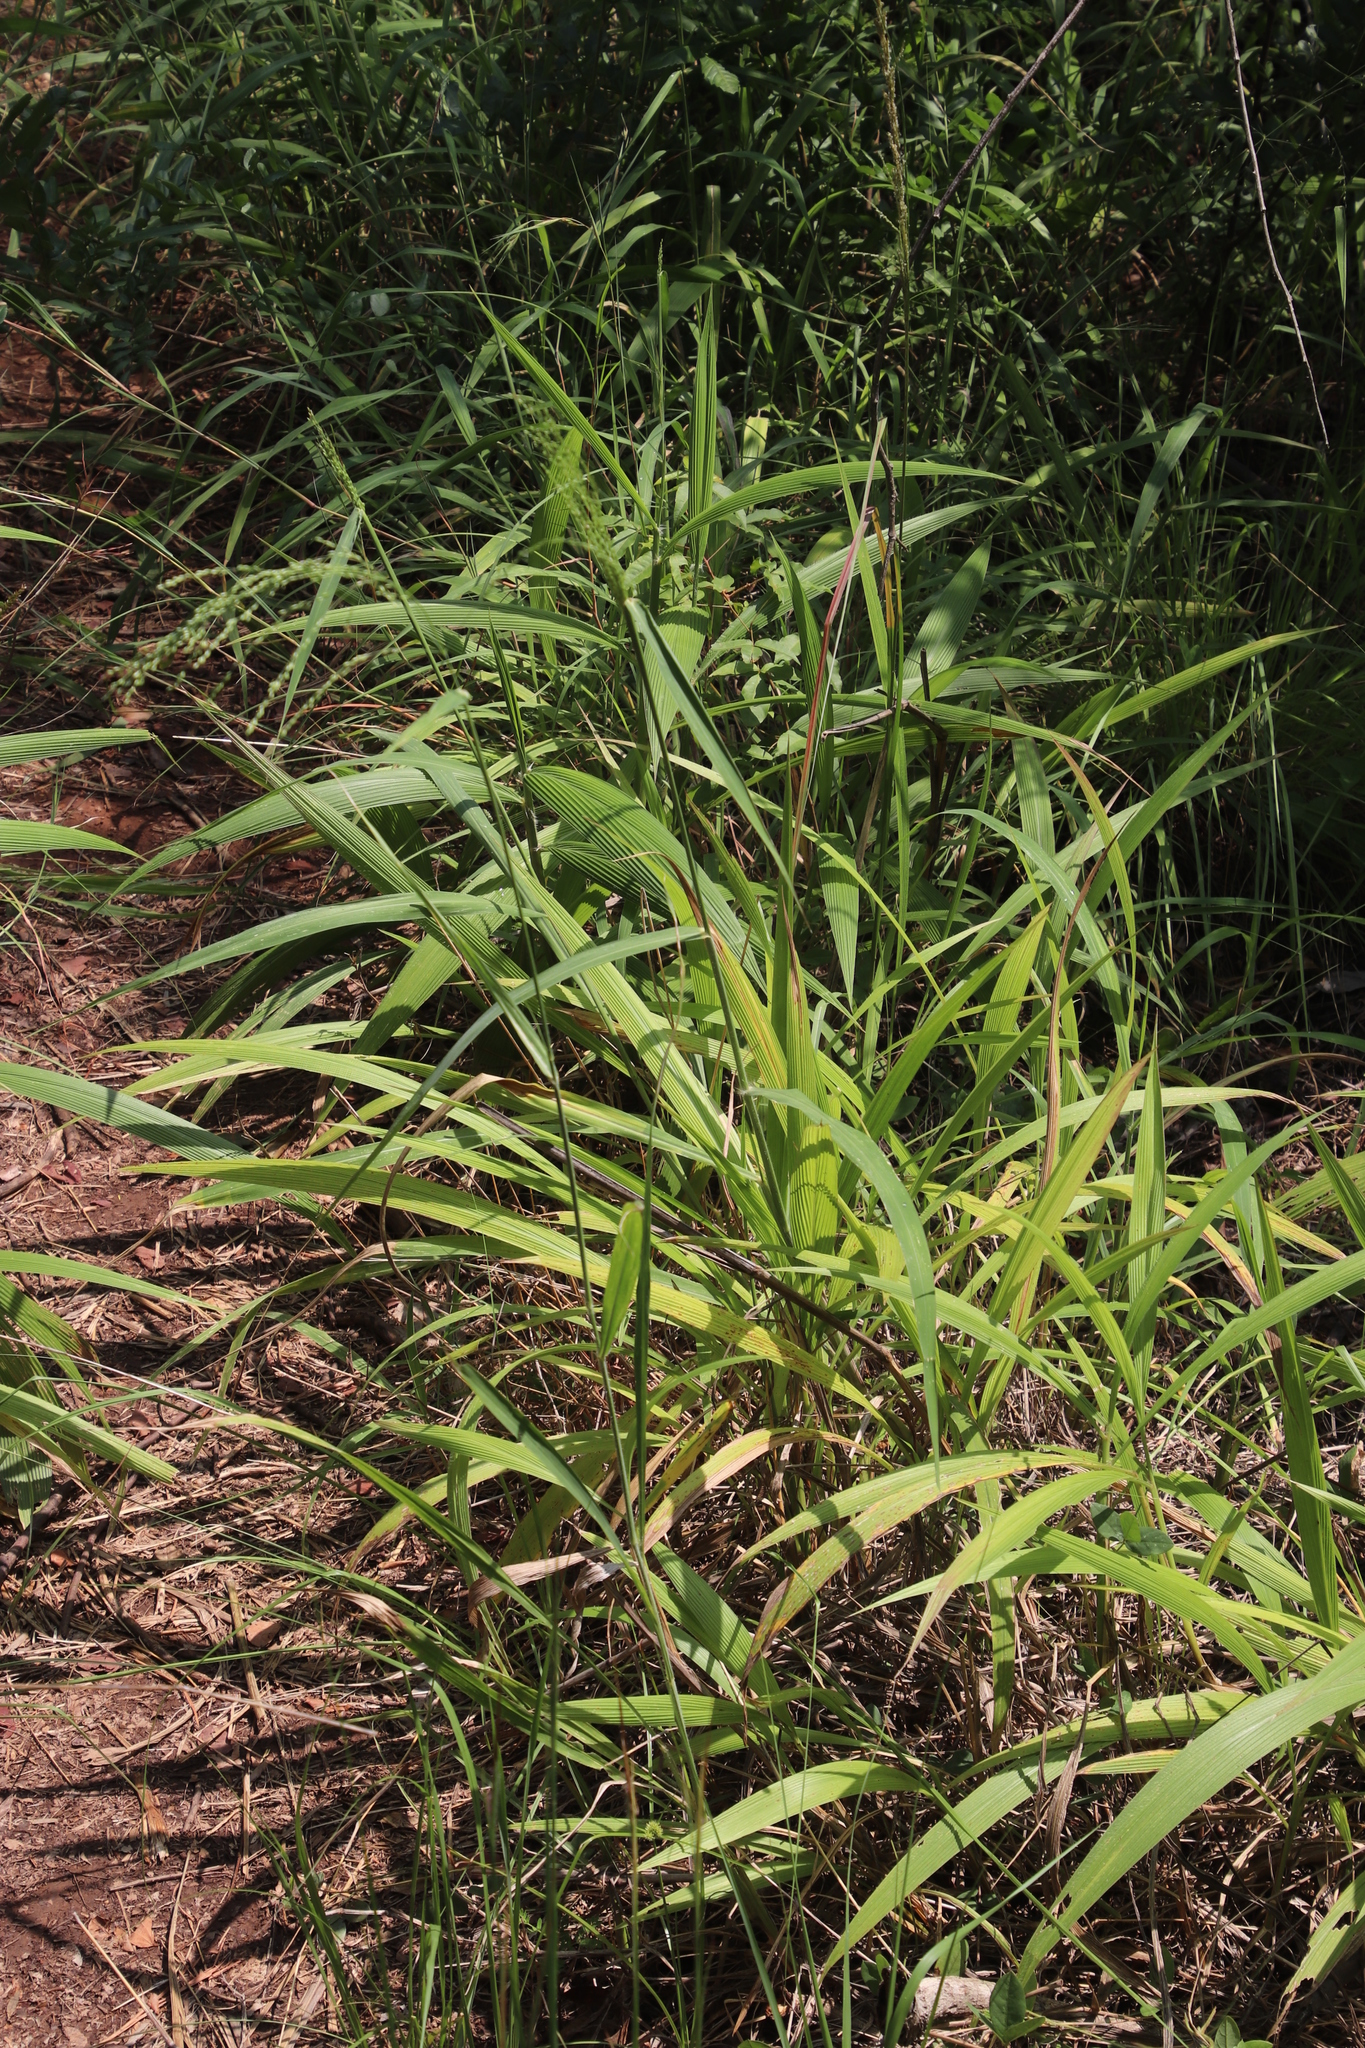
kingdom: Plantae
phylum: Tracheophyta
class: Liliopsida
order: Poales
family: Poaceae
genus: Setaria
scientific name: Setaria megaphylla
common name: Bigleaf bristlegrass
